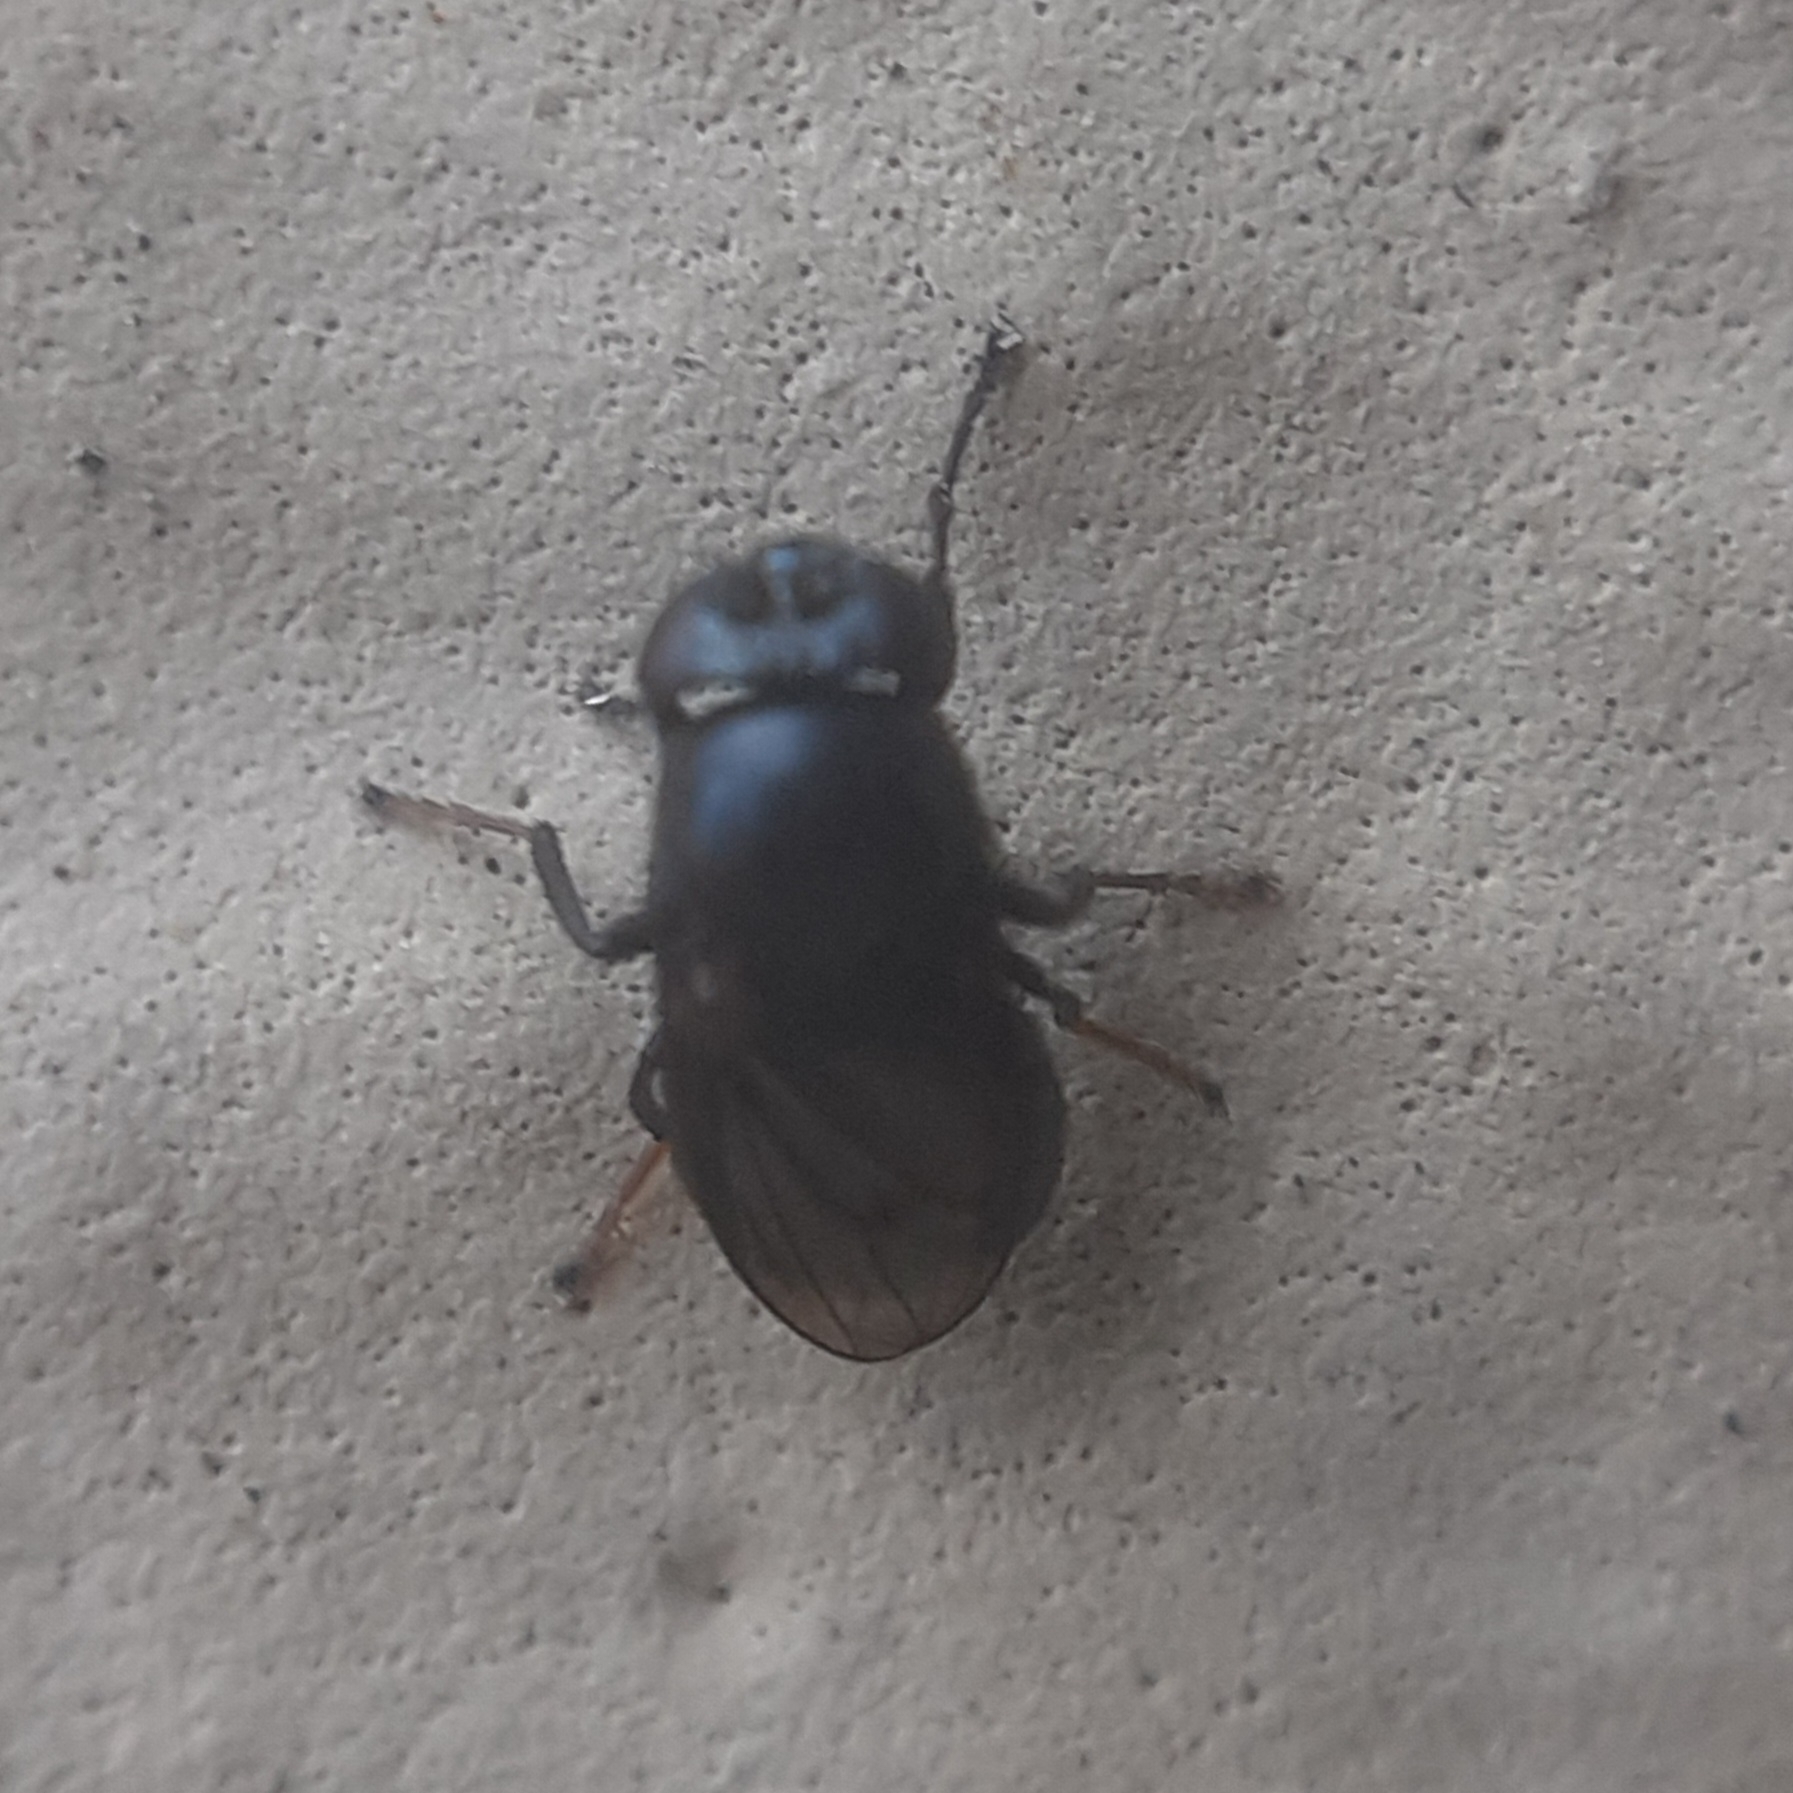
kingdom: Animalia
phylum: Arthropoda
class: Insecta
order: Diptera
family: Ephydridae
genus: Discomyza
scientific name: Discomyza incurva
